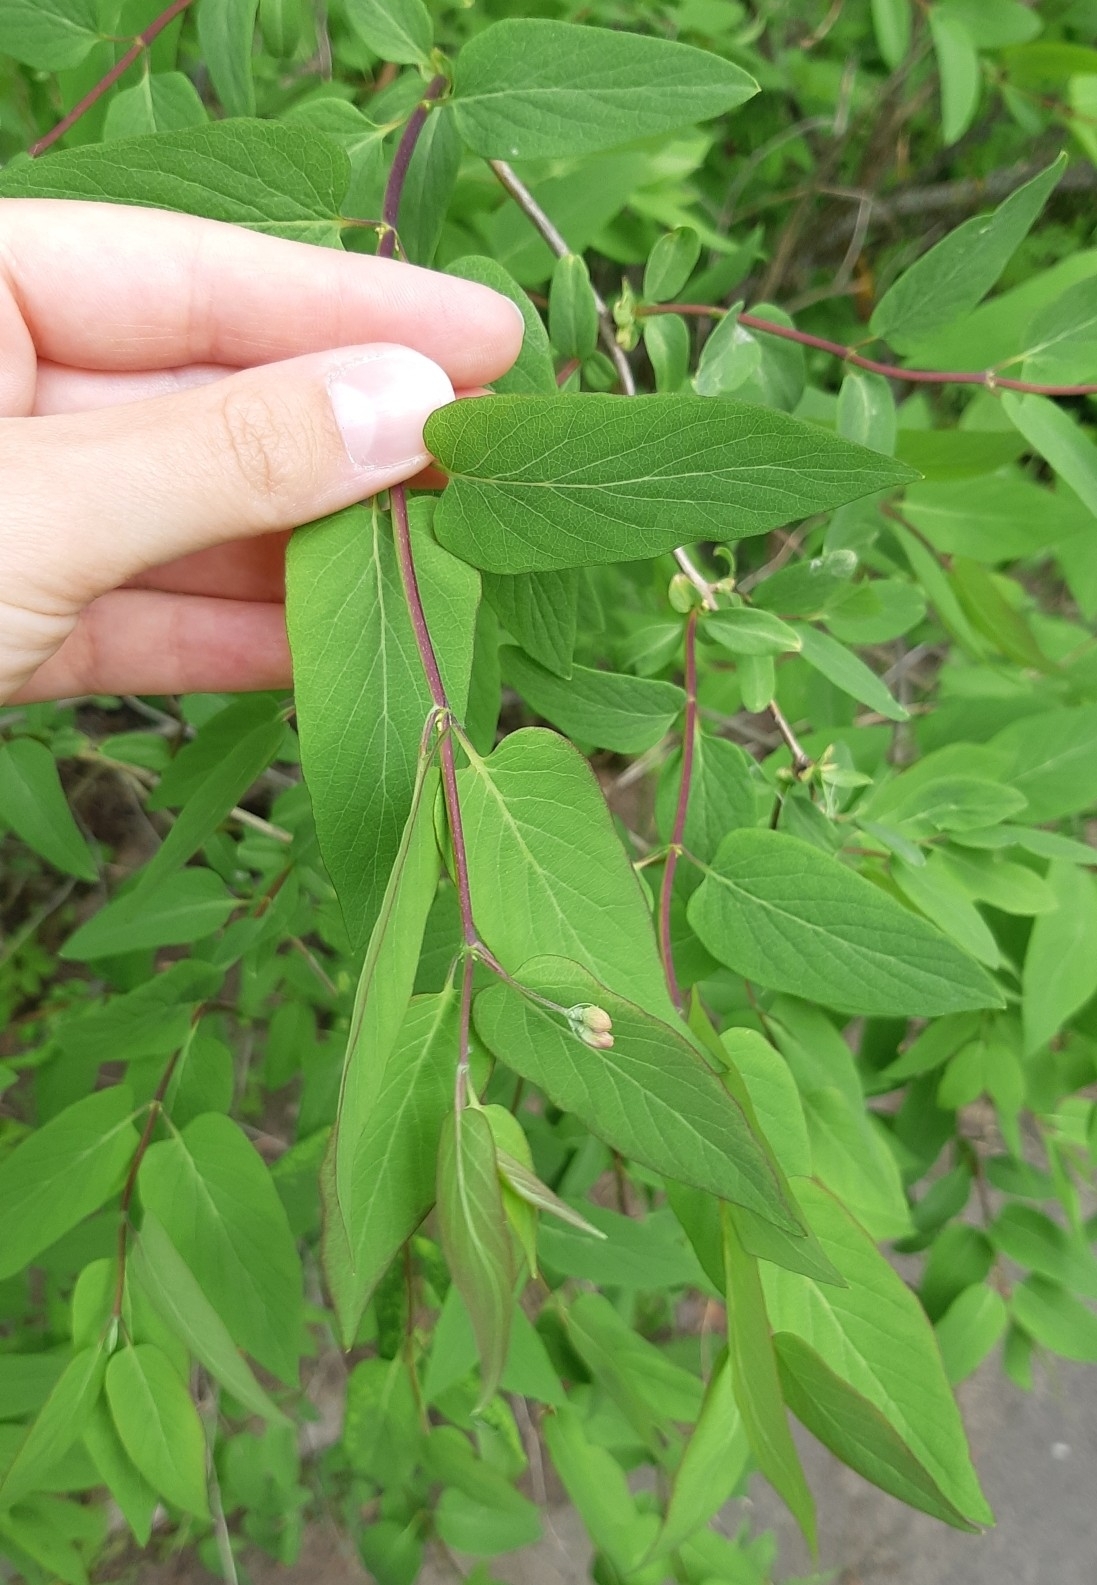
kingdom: Plantae
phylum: Tracheophyta
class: Magnoliopsida
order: Dipsacales
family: Caprifoliaceae
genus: Lonicera
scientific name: Lonicera tatarica
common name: Tatarian honeysuckle
